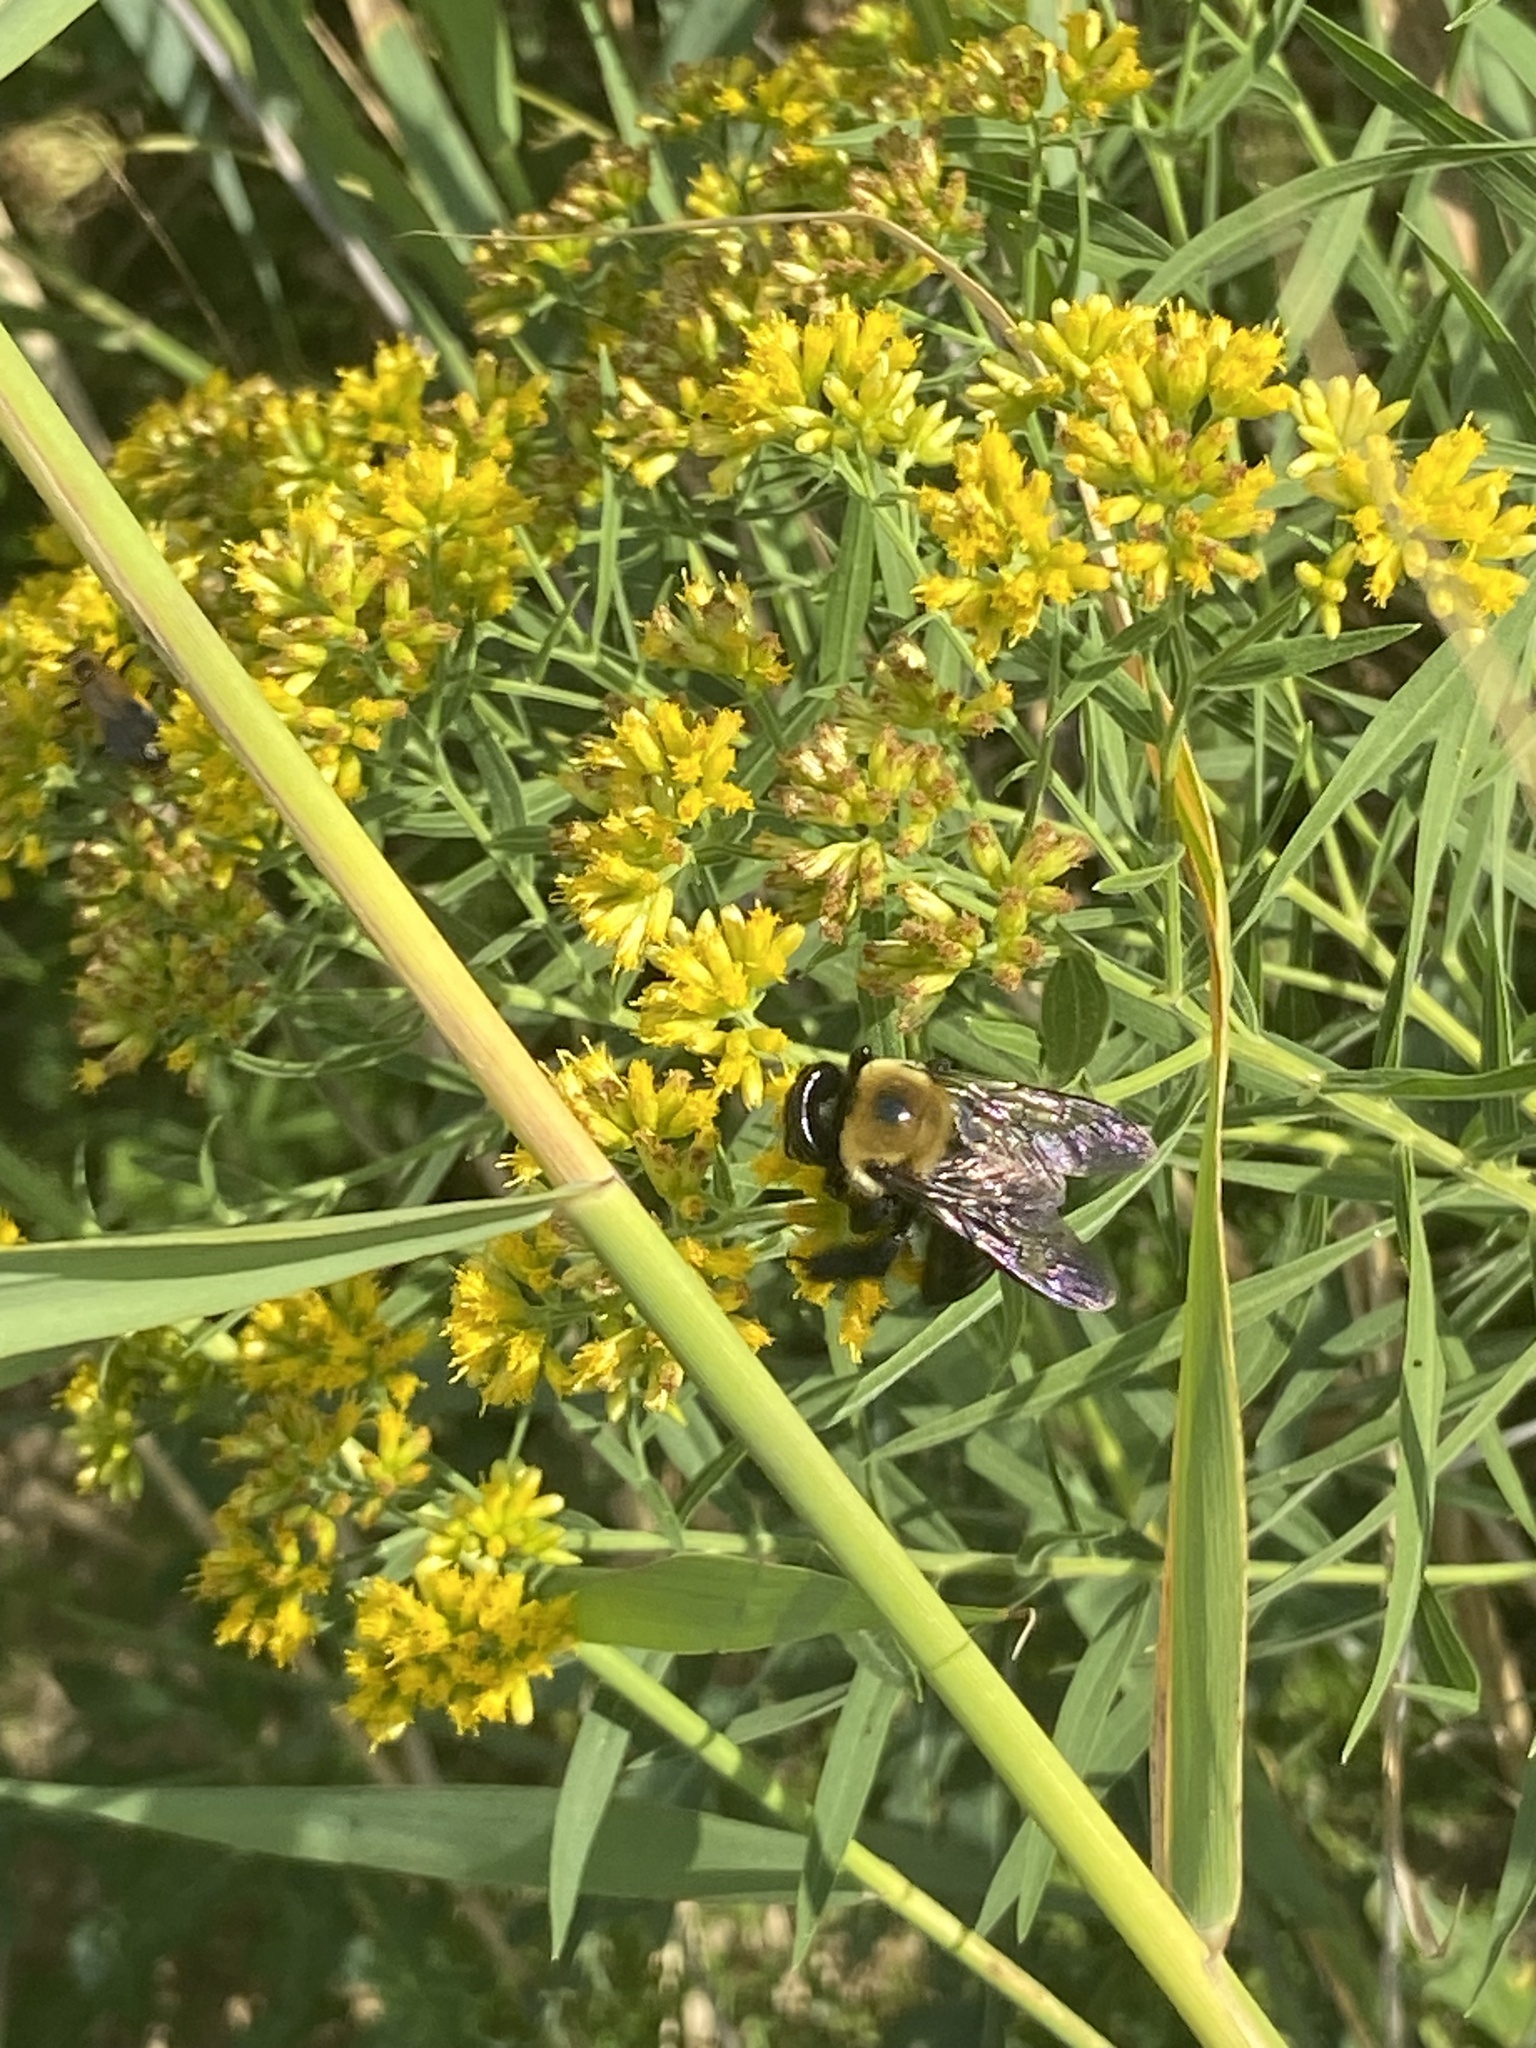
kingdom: Animalia
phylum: Arthropoda
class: Insecta
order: Hymenoptera
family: Apidae
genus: Xylocopa
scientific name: Xylocopa virginica
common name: Carpenter bee
